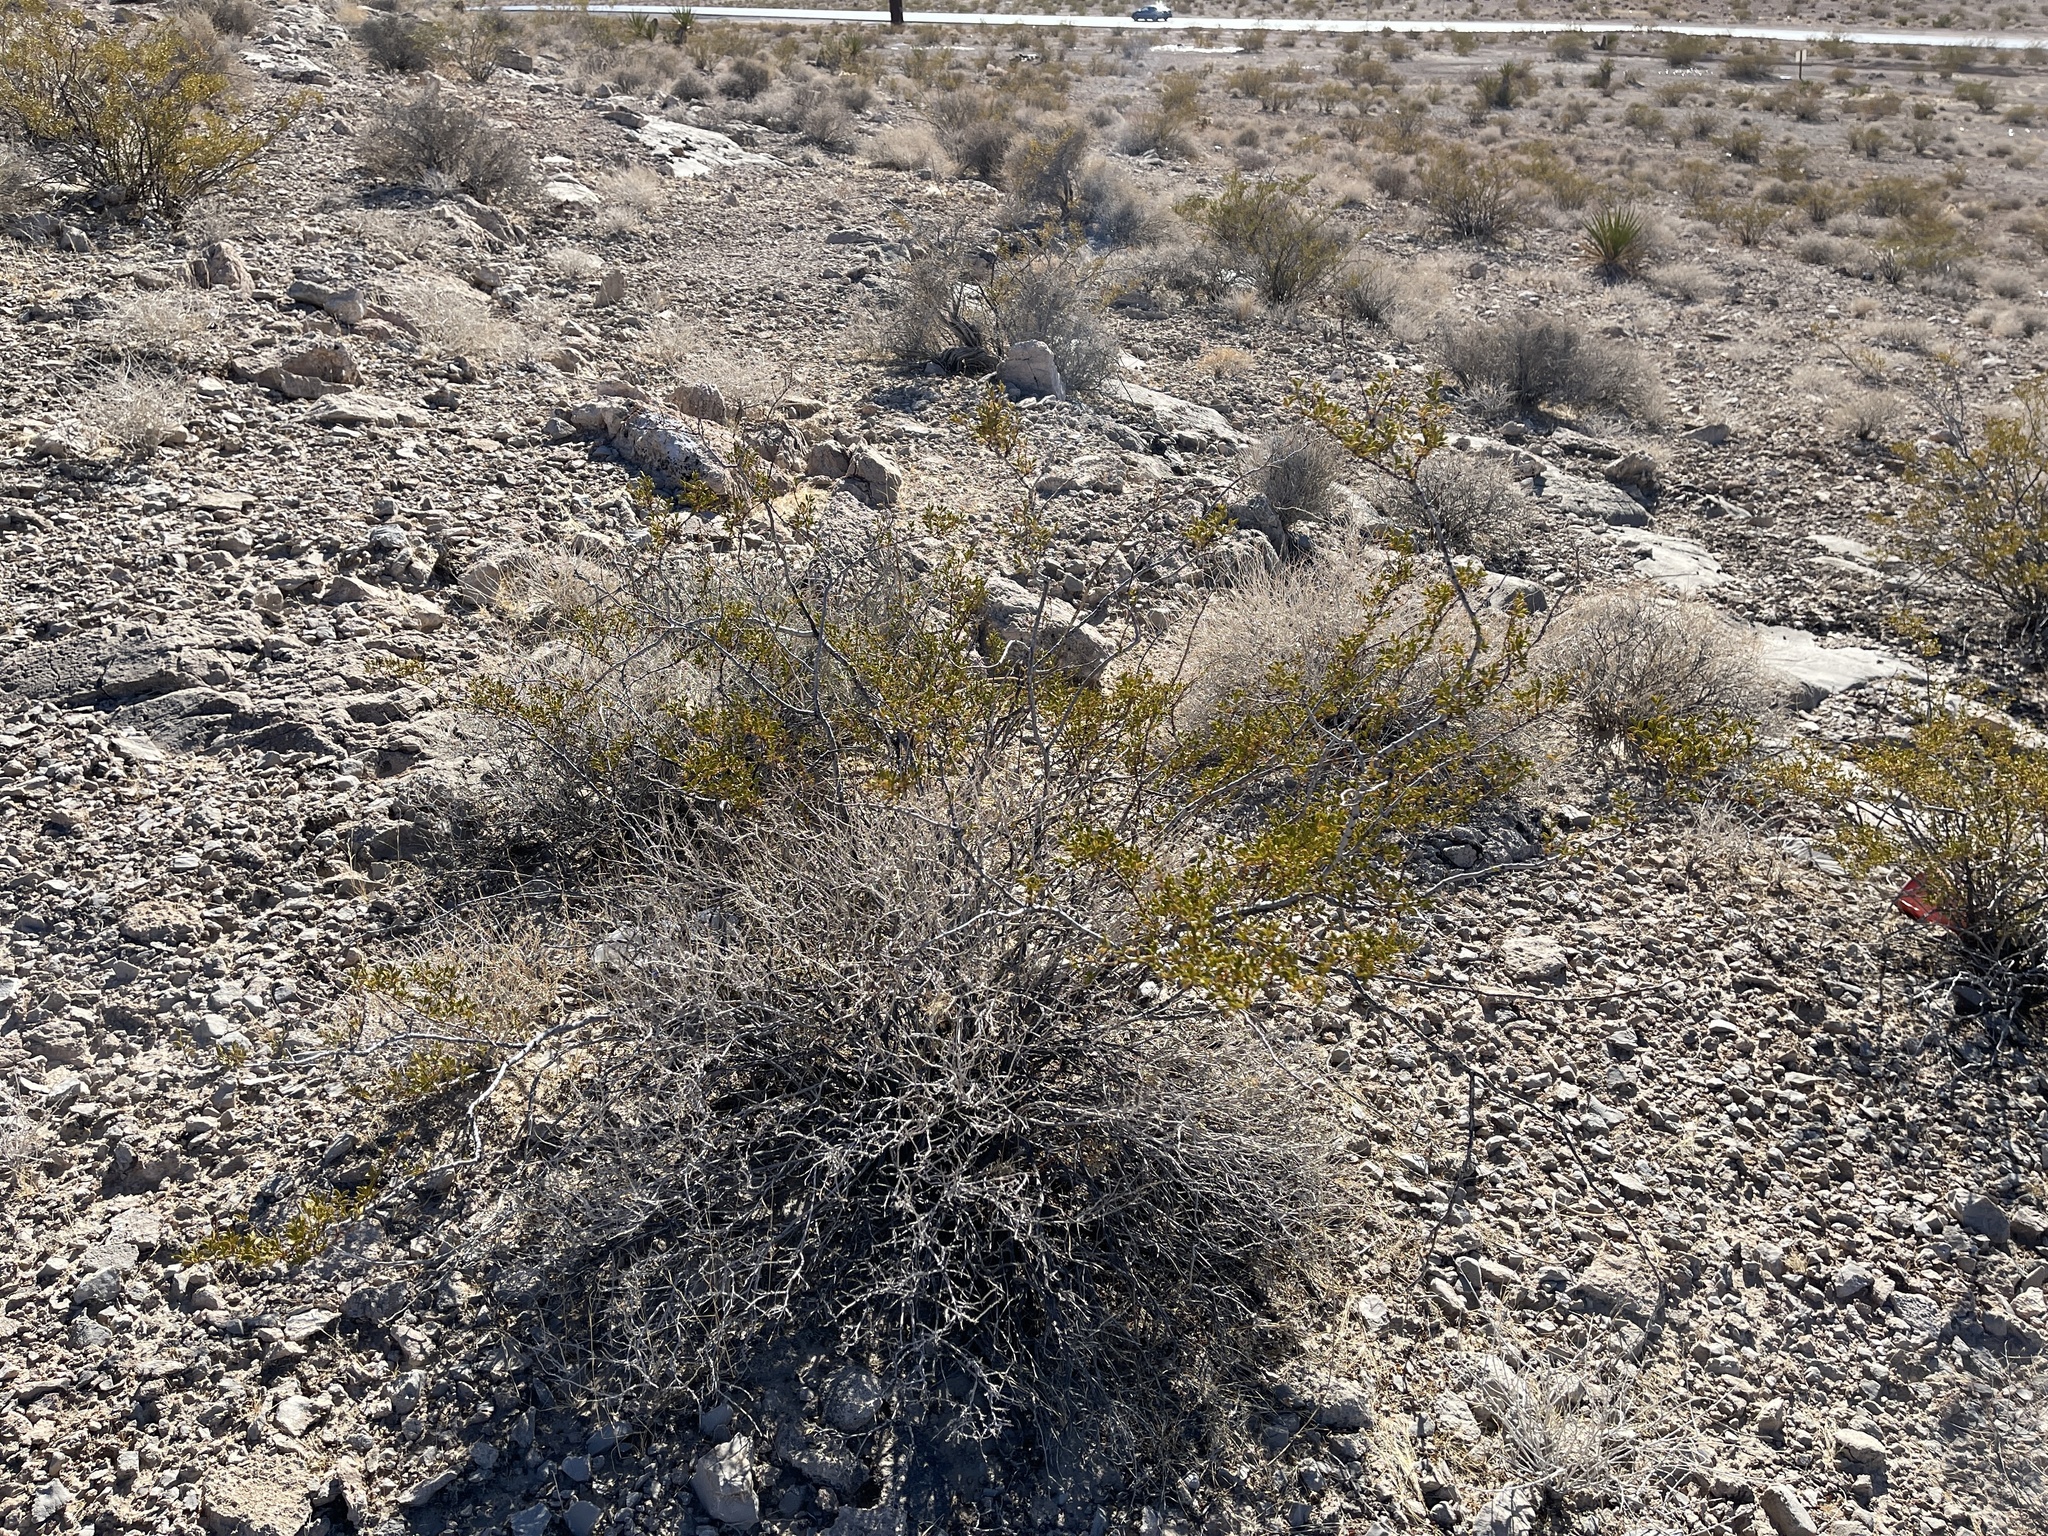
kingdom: Plantae
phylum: Tracheophyta
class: Magnoliopsida
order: Zygophyllales
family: Zygophyllaceae
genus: Larrea
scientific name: Larrea tridentata
